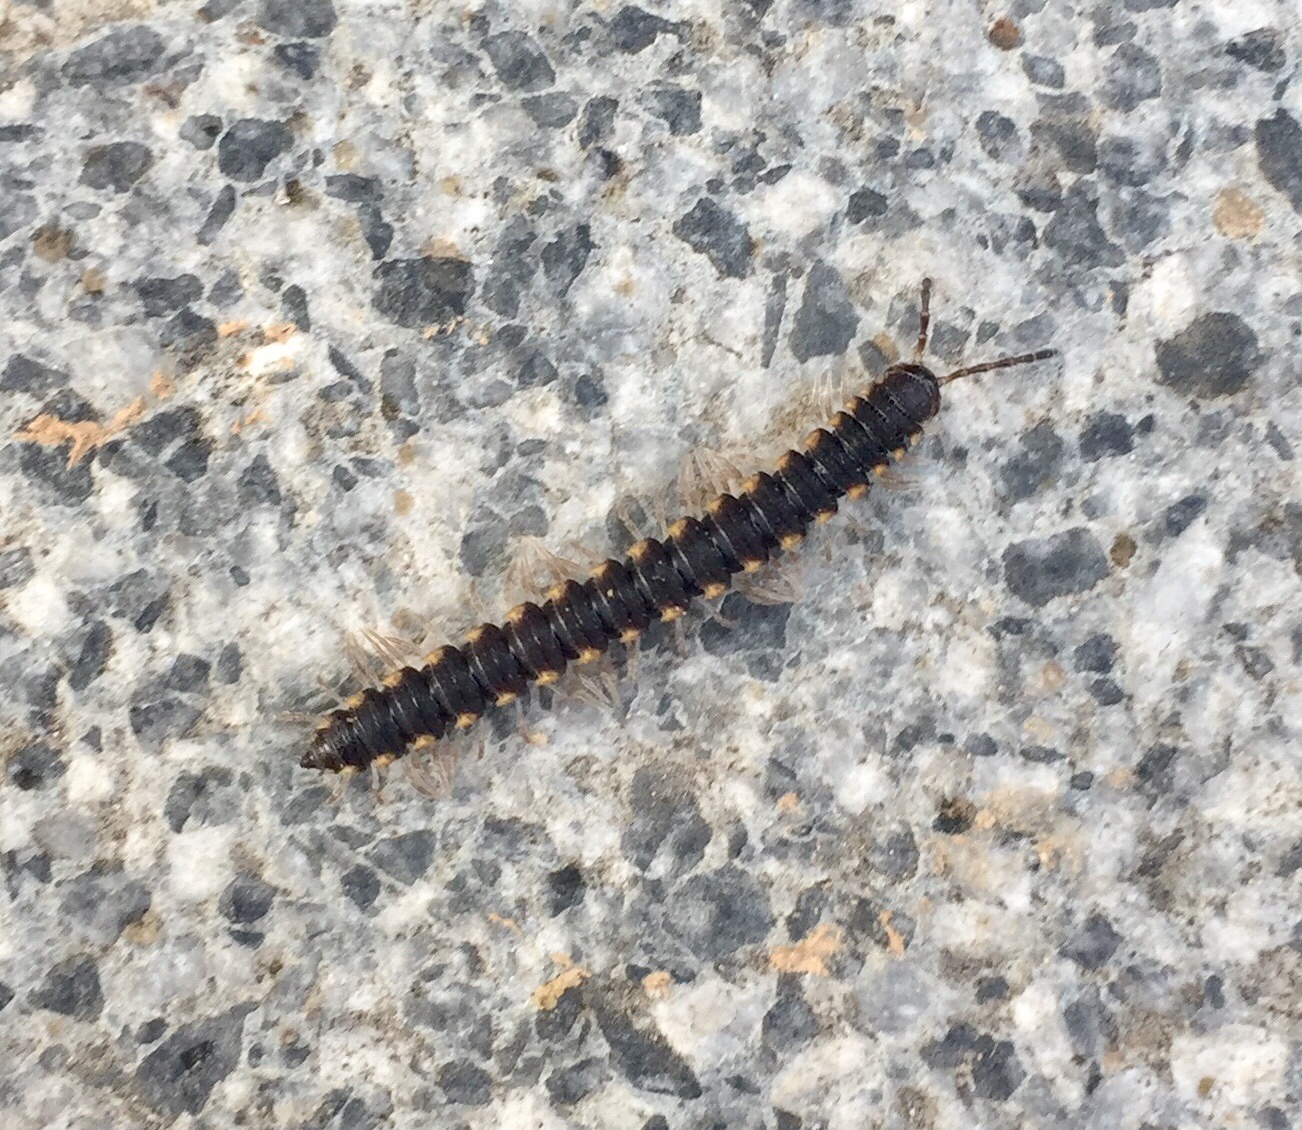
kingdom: Animalia
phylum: Arthropoda
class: Diplopoda
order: Polydesmida
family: Paradoxosomatidae
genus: Chondromorpha
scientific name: Chondromorpha xanthotricha
